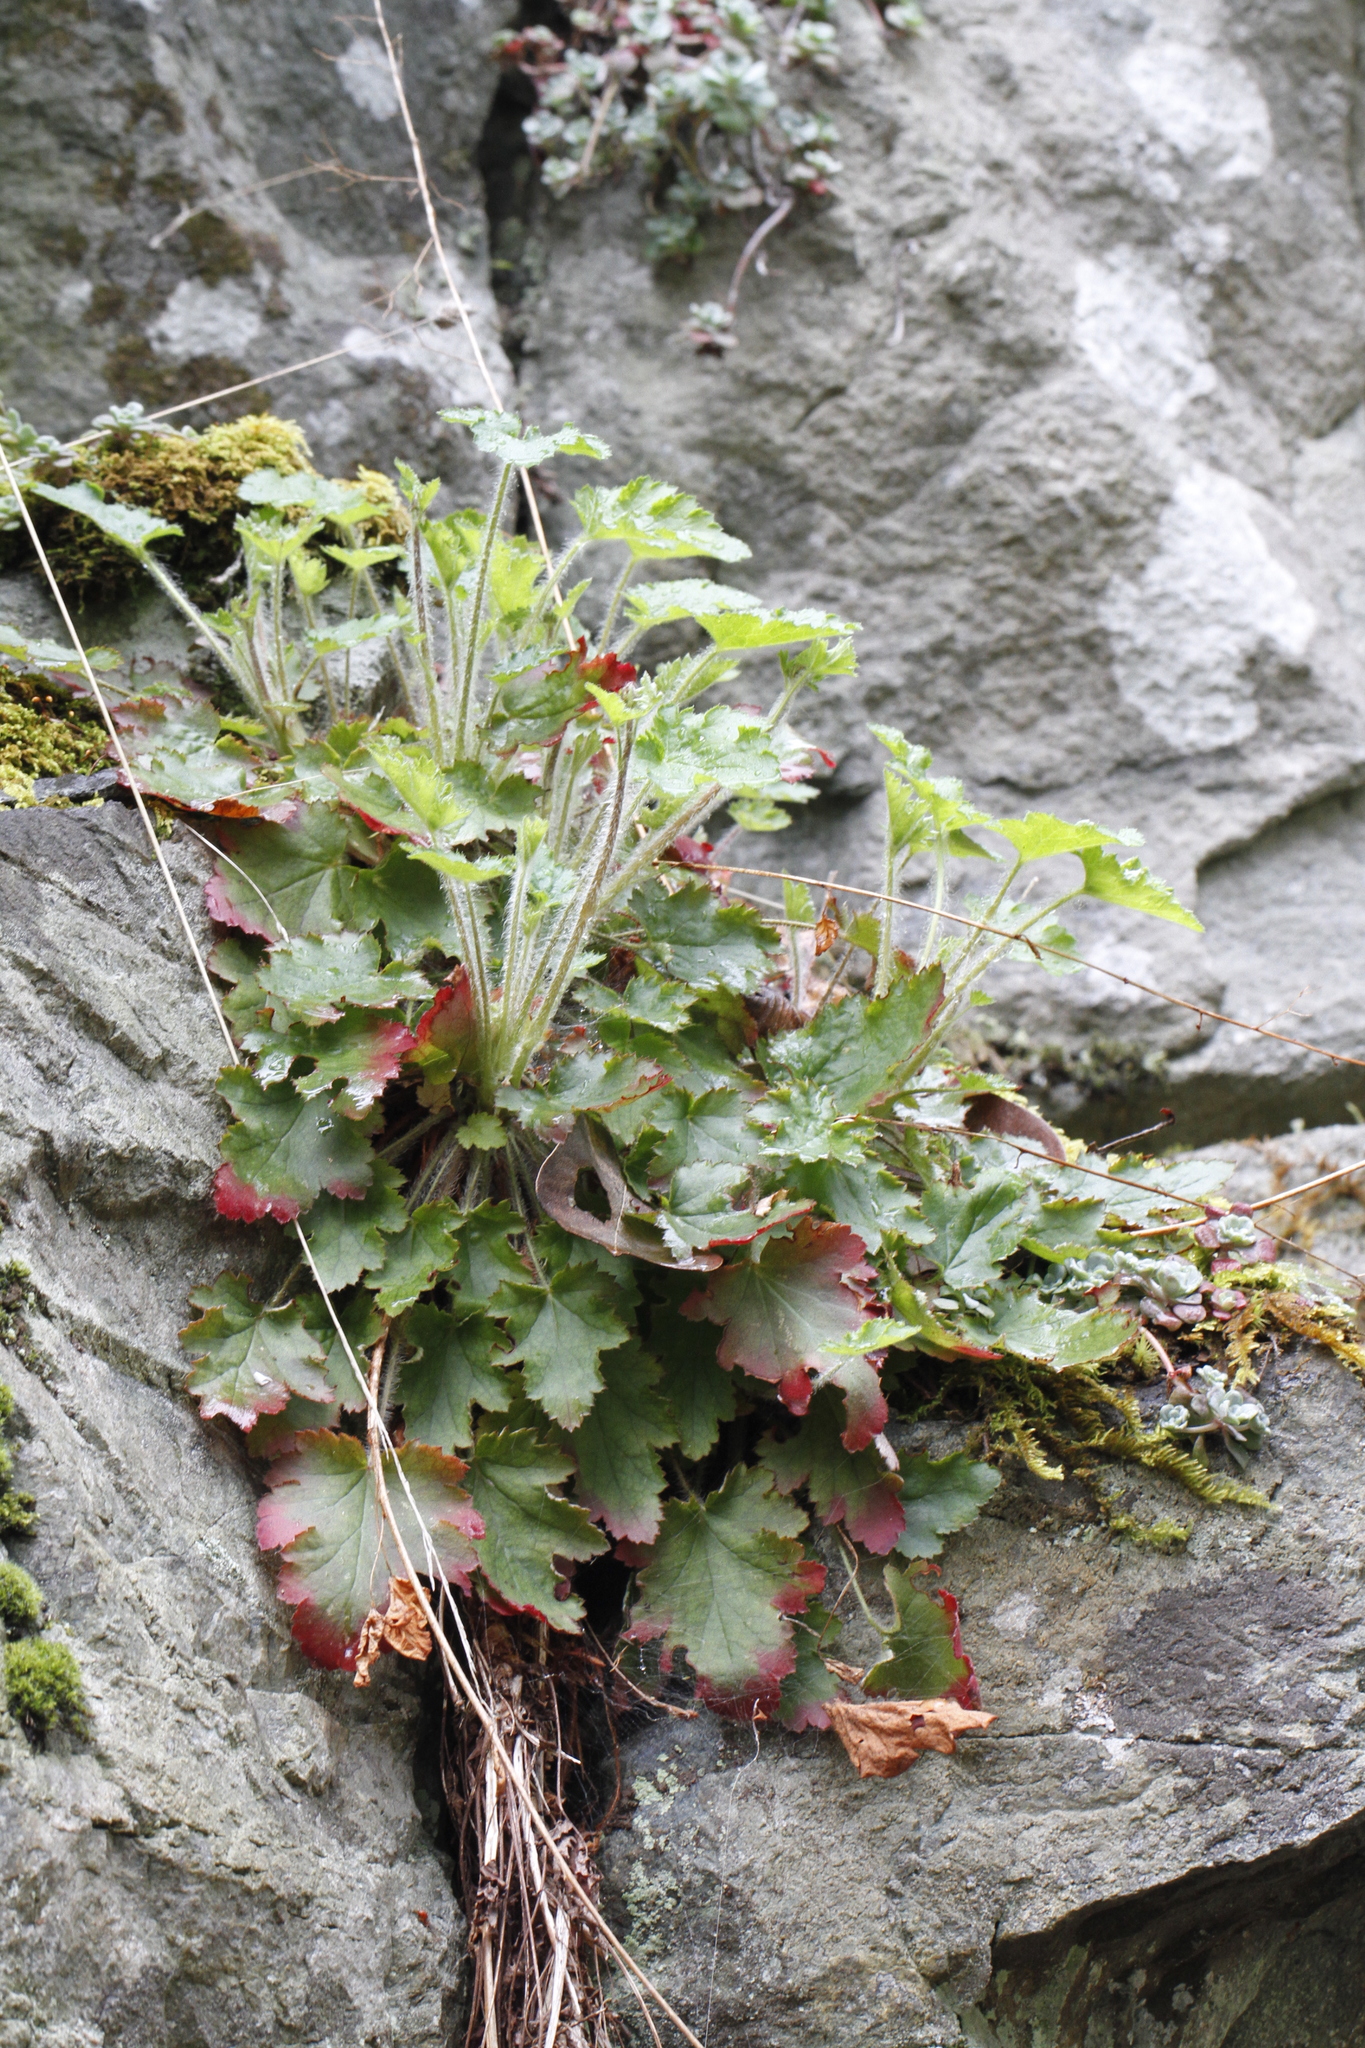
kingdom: Plantae
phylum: Tracheophyta
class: Magnoliopsida
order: Saxifragales
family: Saxifragaceae
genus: Heuchera
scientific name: Heuchera micrantha
